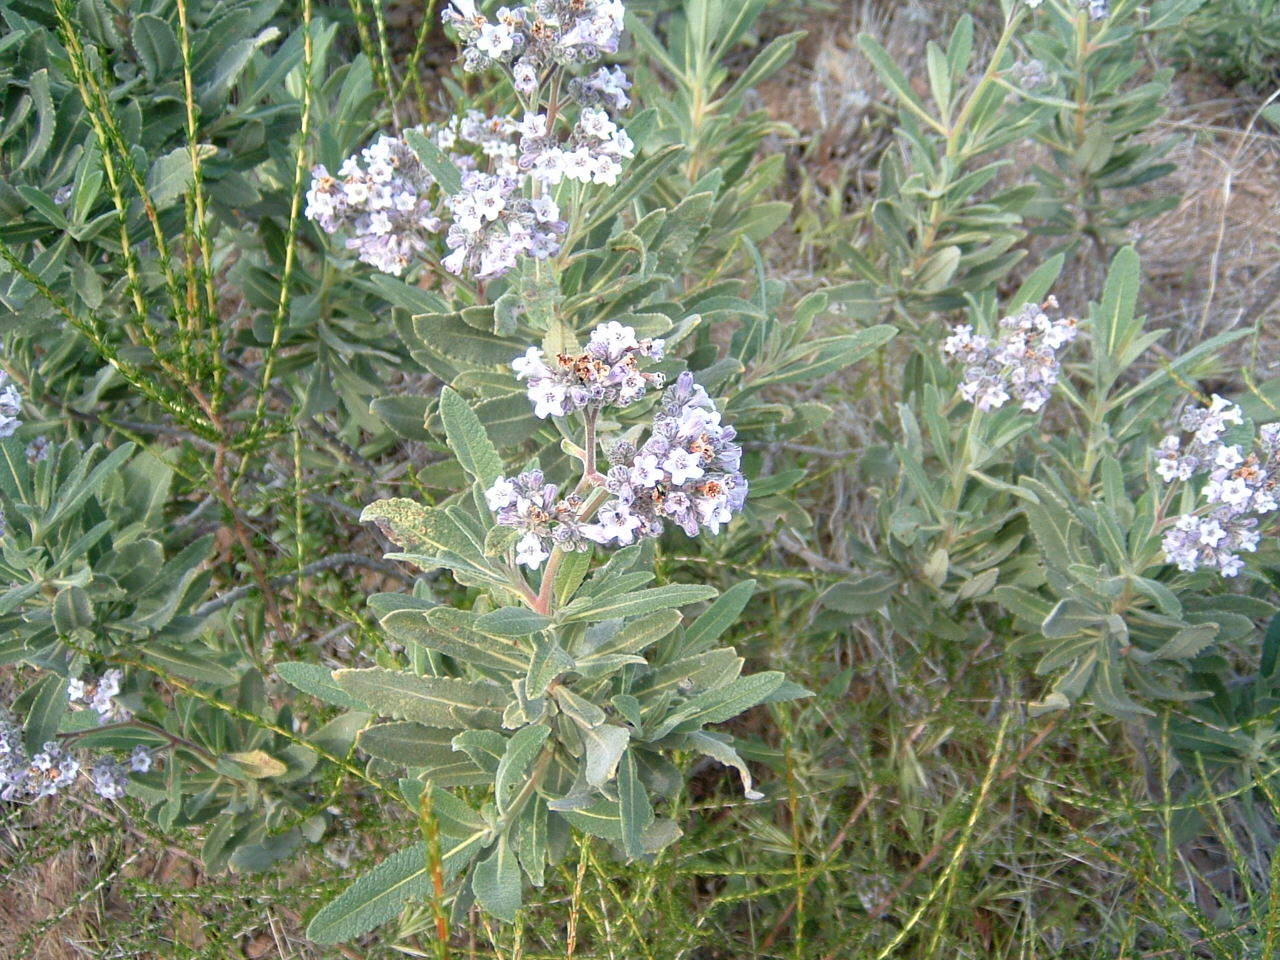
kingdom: Plantae
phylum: Tracheophyta
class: Magnoliopsida
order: Boraginales
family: Namaceae
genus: Eriodictyon
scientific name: Eriodictyon crassifolium
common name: Thick-leaf yerba-santa
